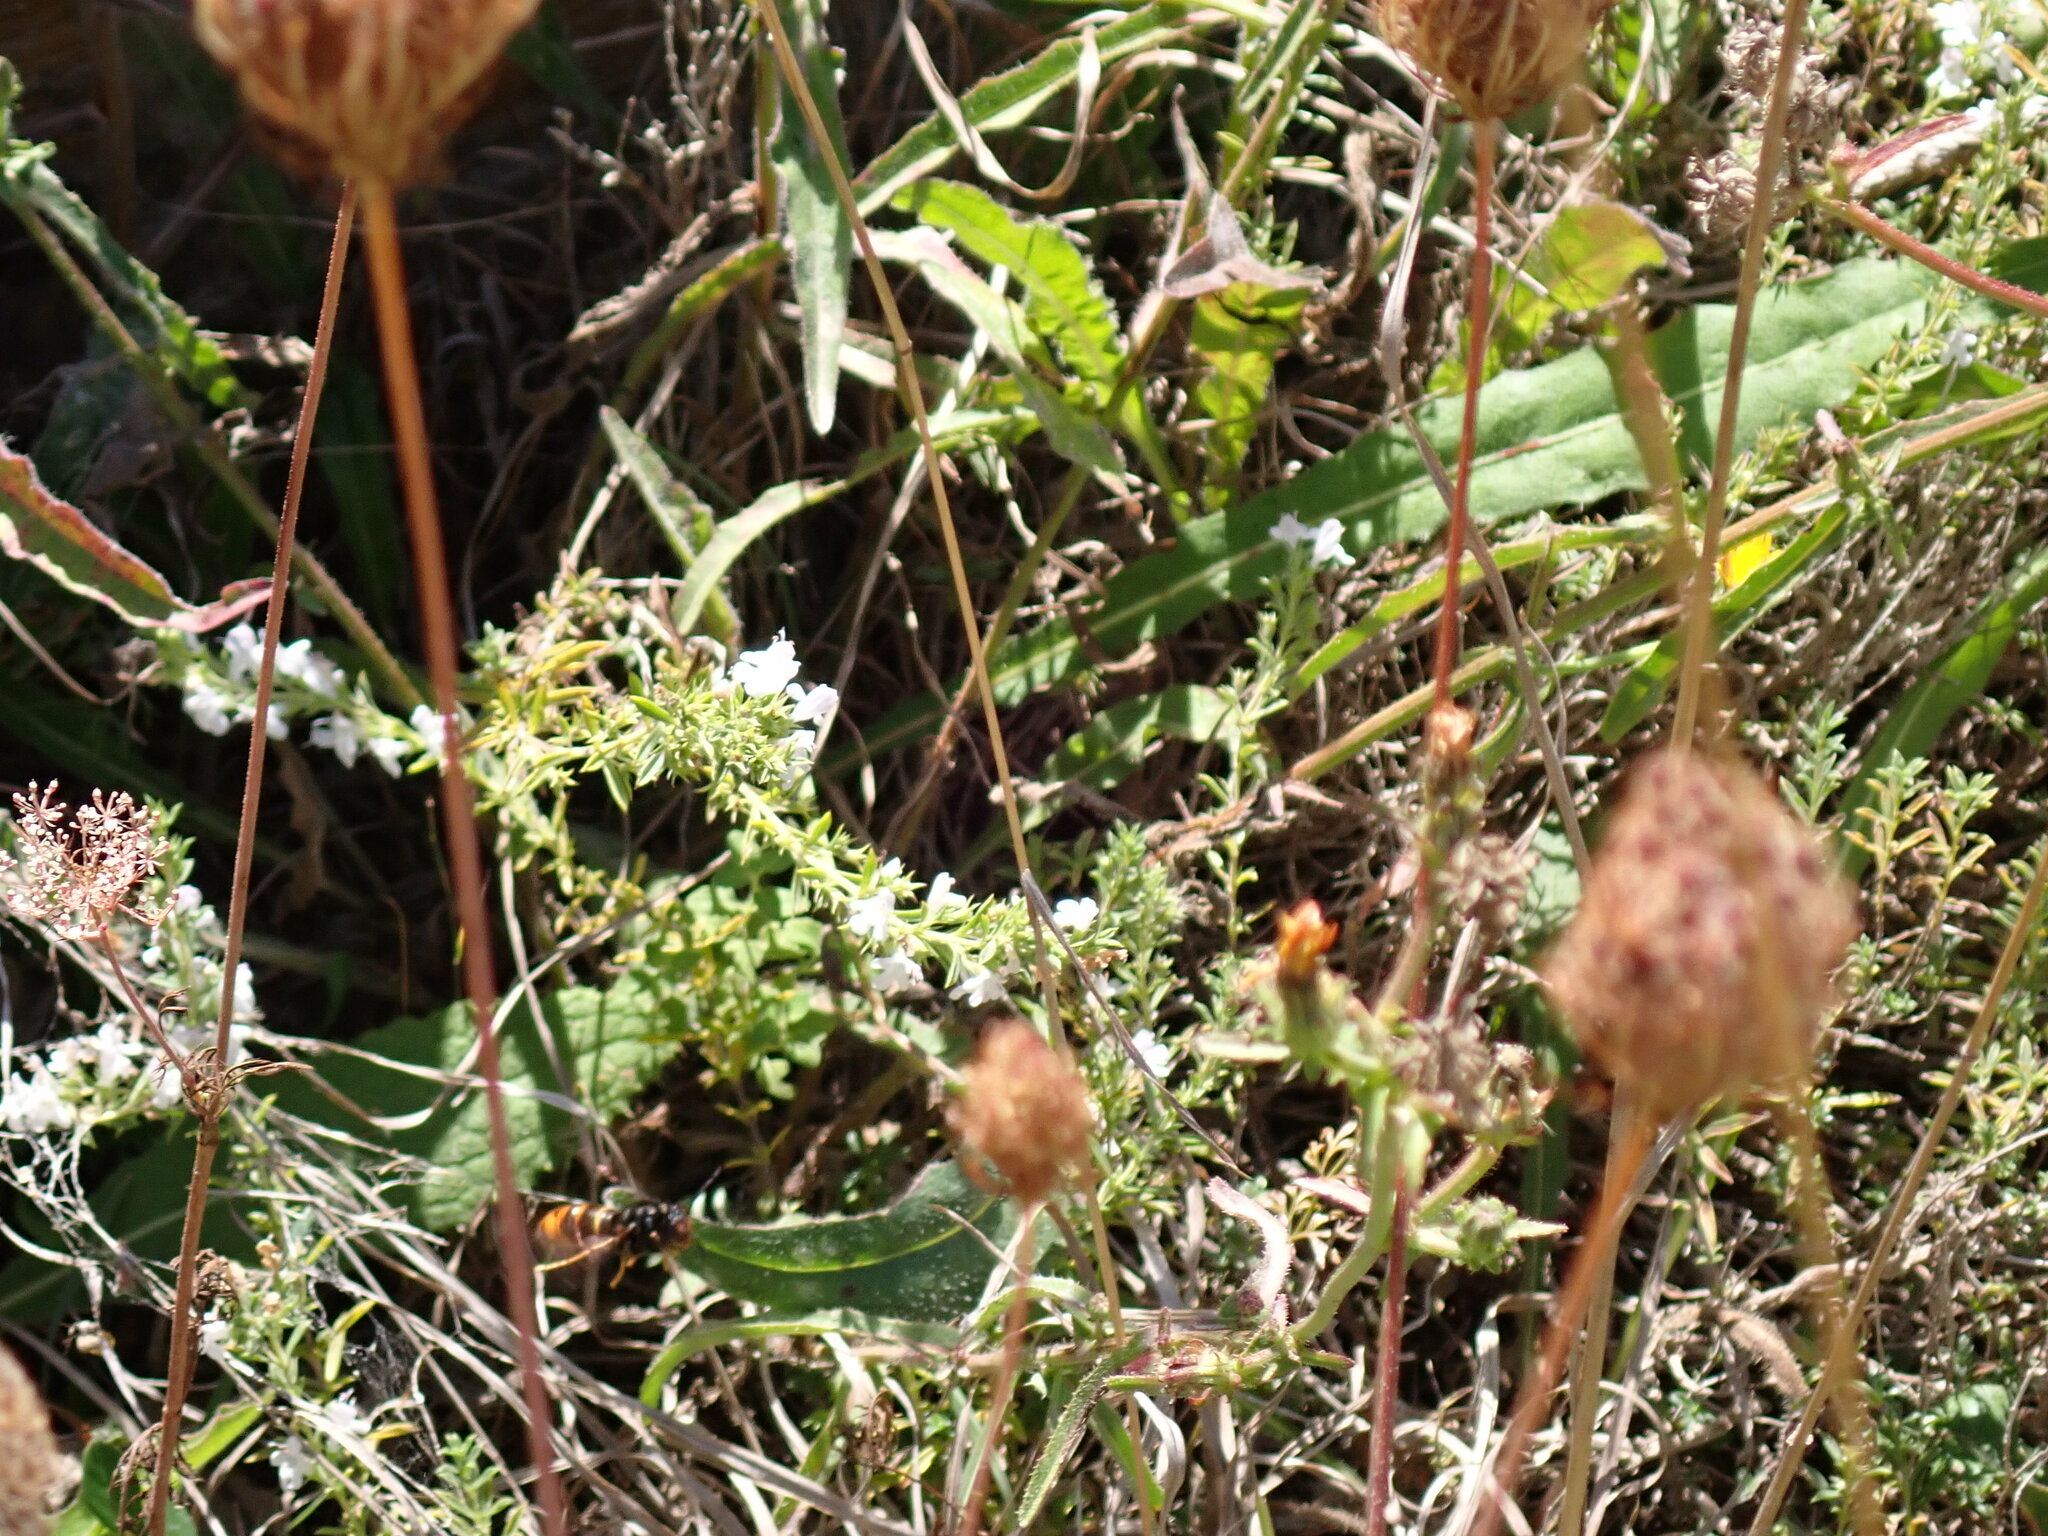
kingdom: Animalia
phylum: Arthropoda
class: Insecta
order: Hymenoptera
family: Vespidae
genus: Vespa
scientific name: Vespa velutina
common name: Asian hornet
